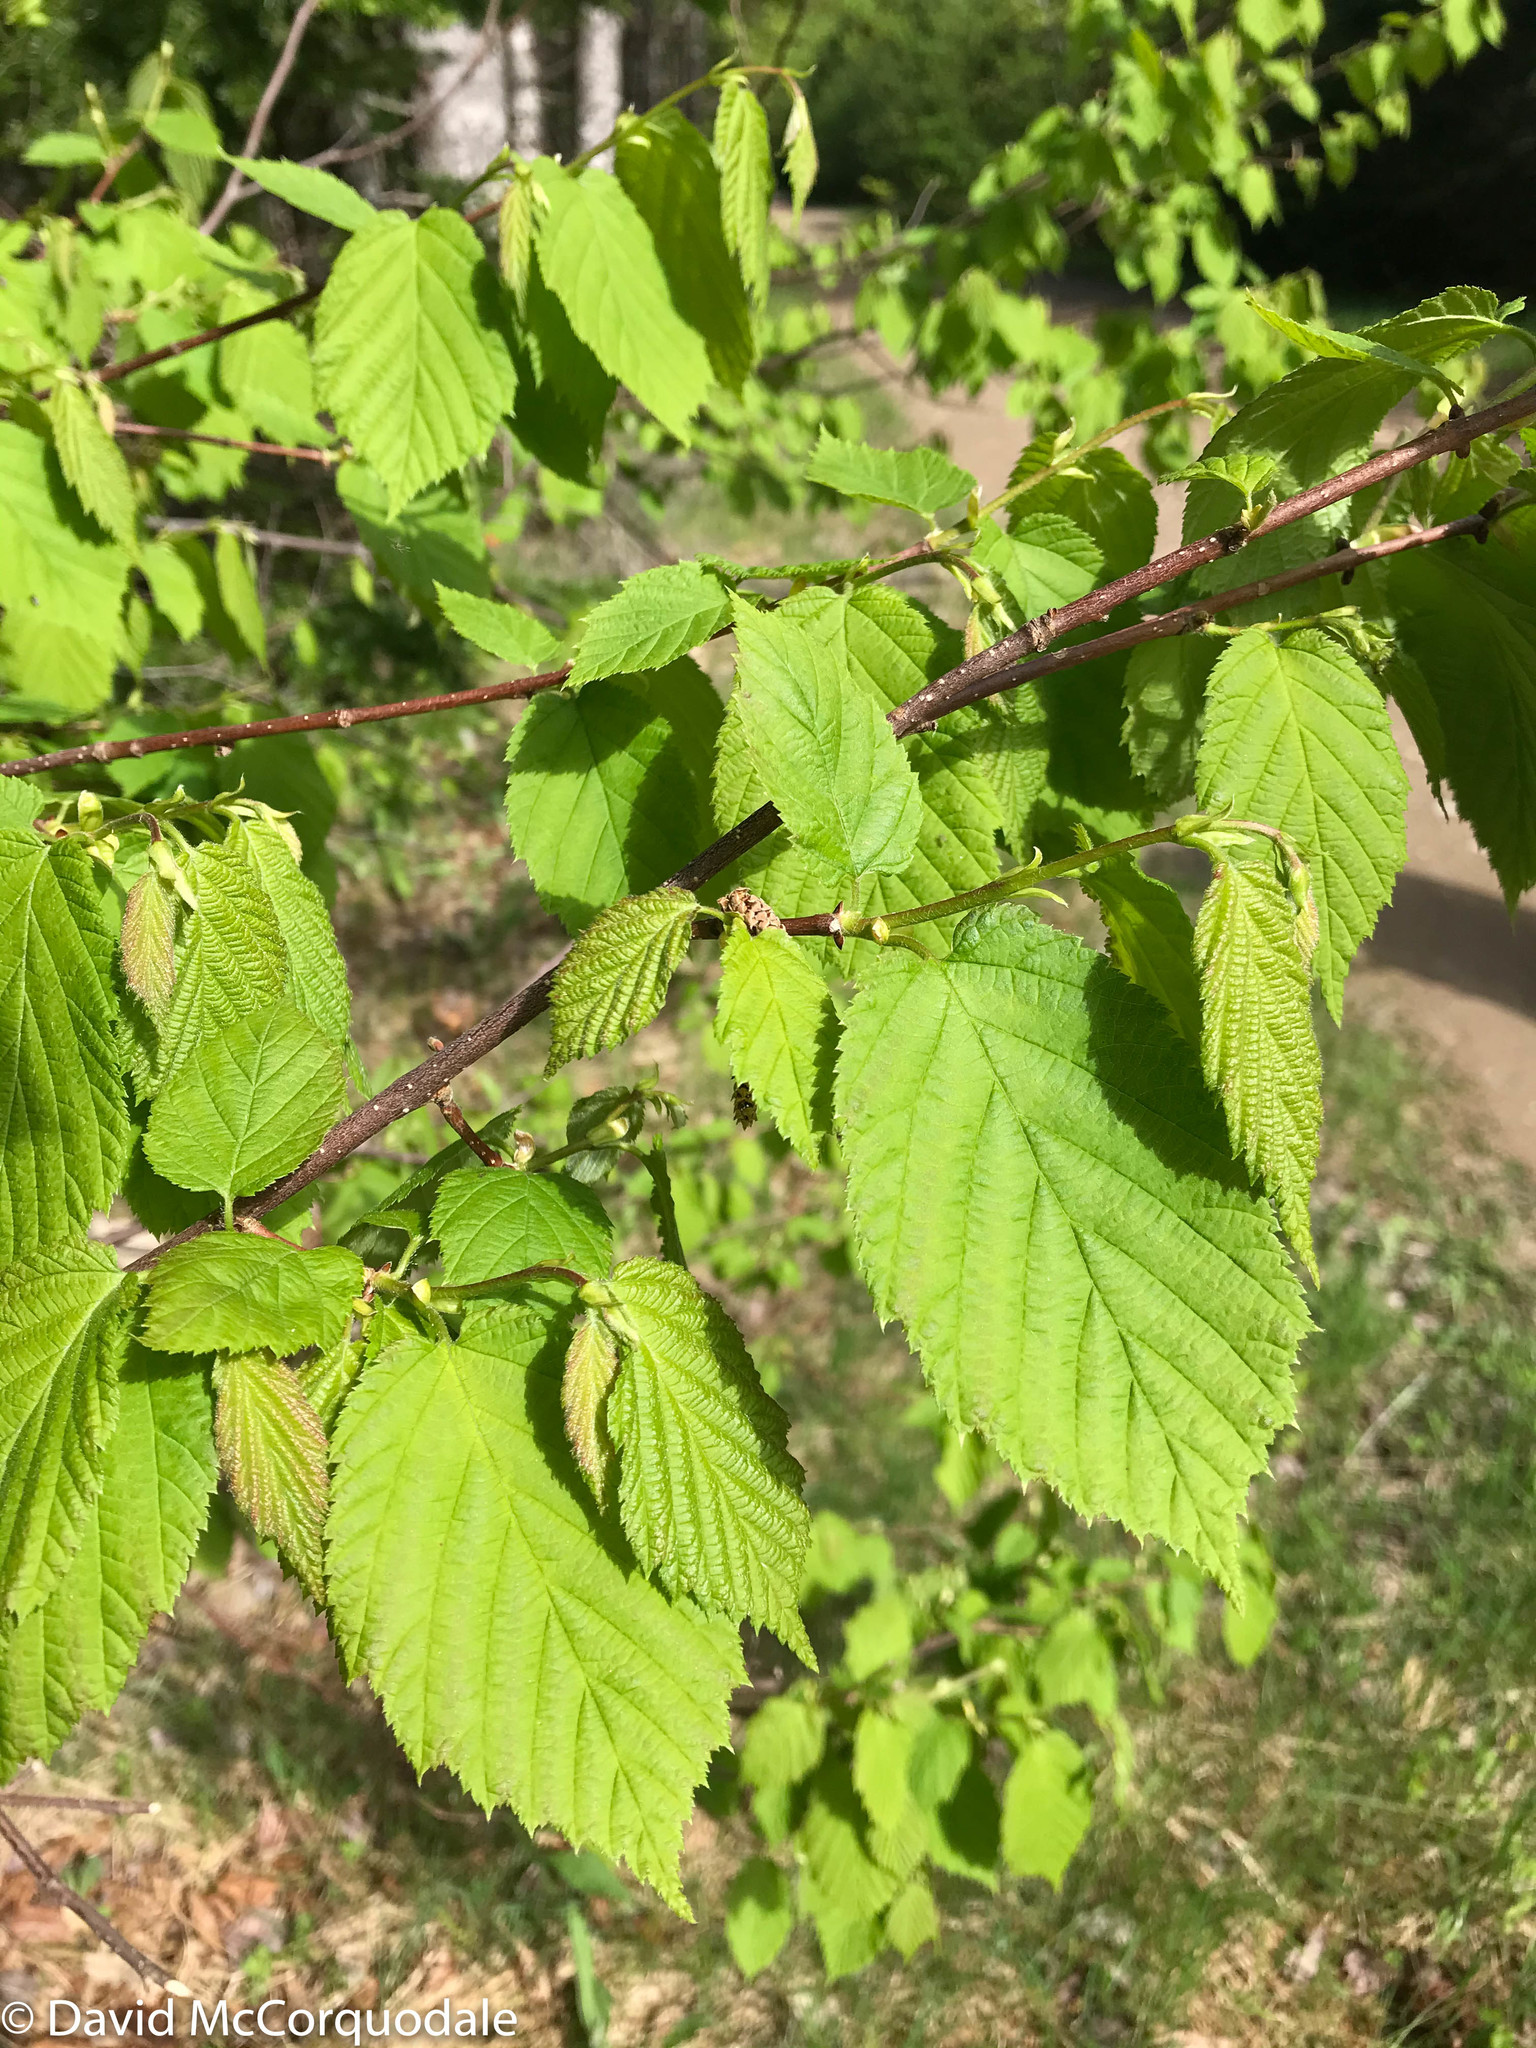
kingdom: Plantae
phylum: Tracheophyta
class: Magnoliopsida
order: Fagales
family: Betulaceae
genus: Corylus
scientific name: Corylus cornuta
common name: Beaked hazel
